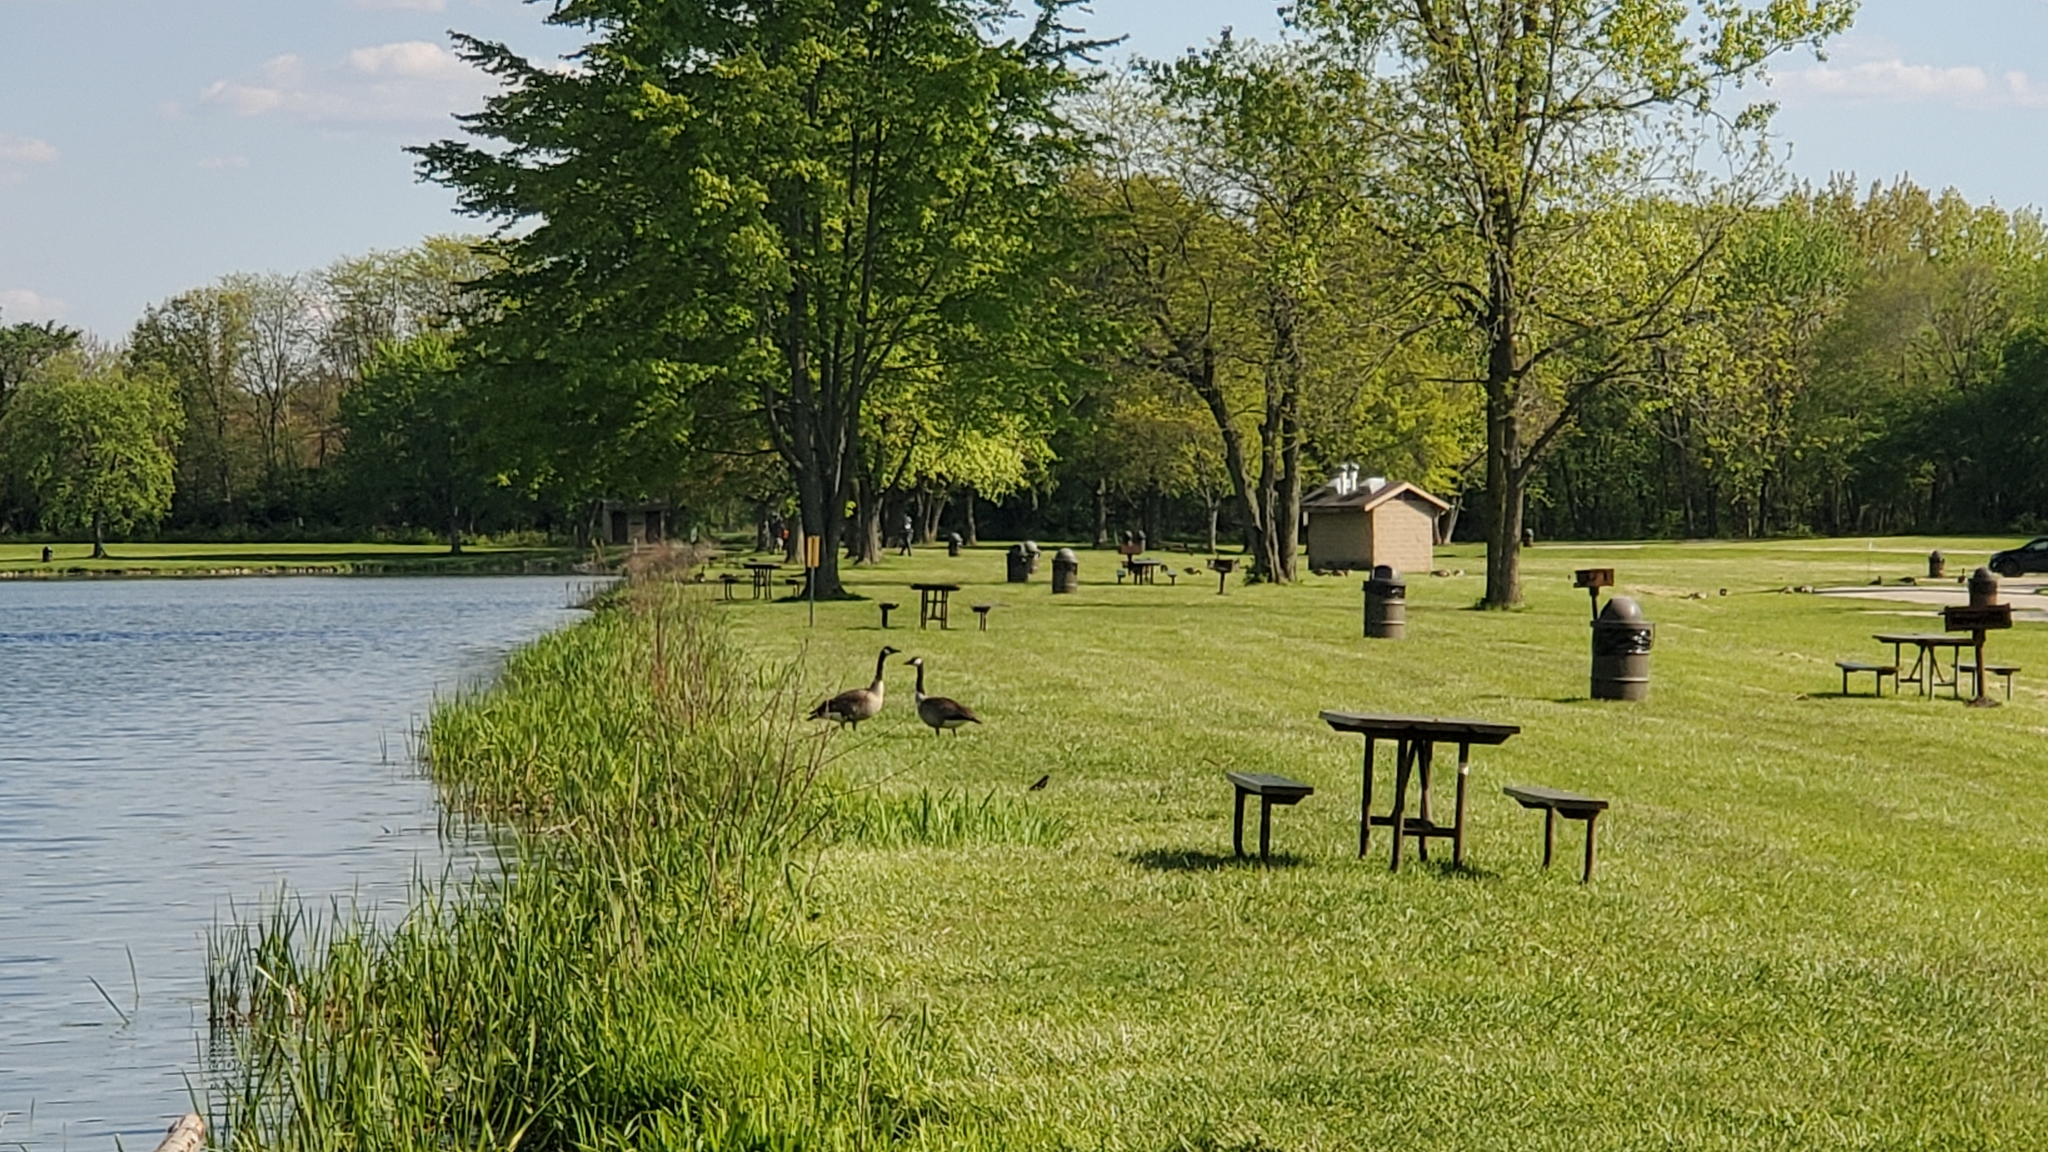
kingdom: Animalia
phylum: Chordata
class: Aves
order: Anseriformes
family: Anatidae
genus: Branta
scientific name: Branta canadensis
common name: Canada goose
